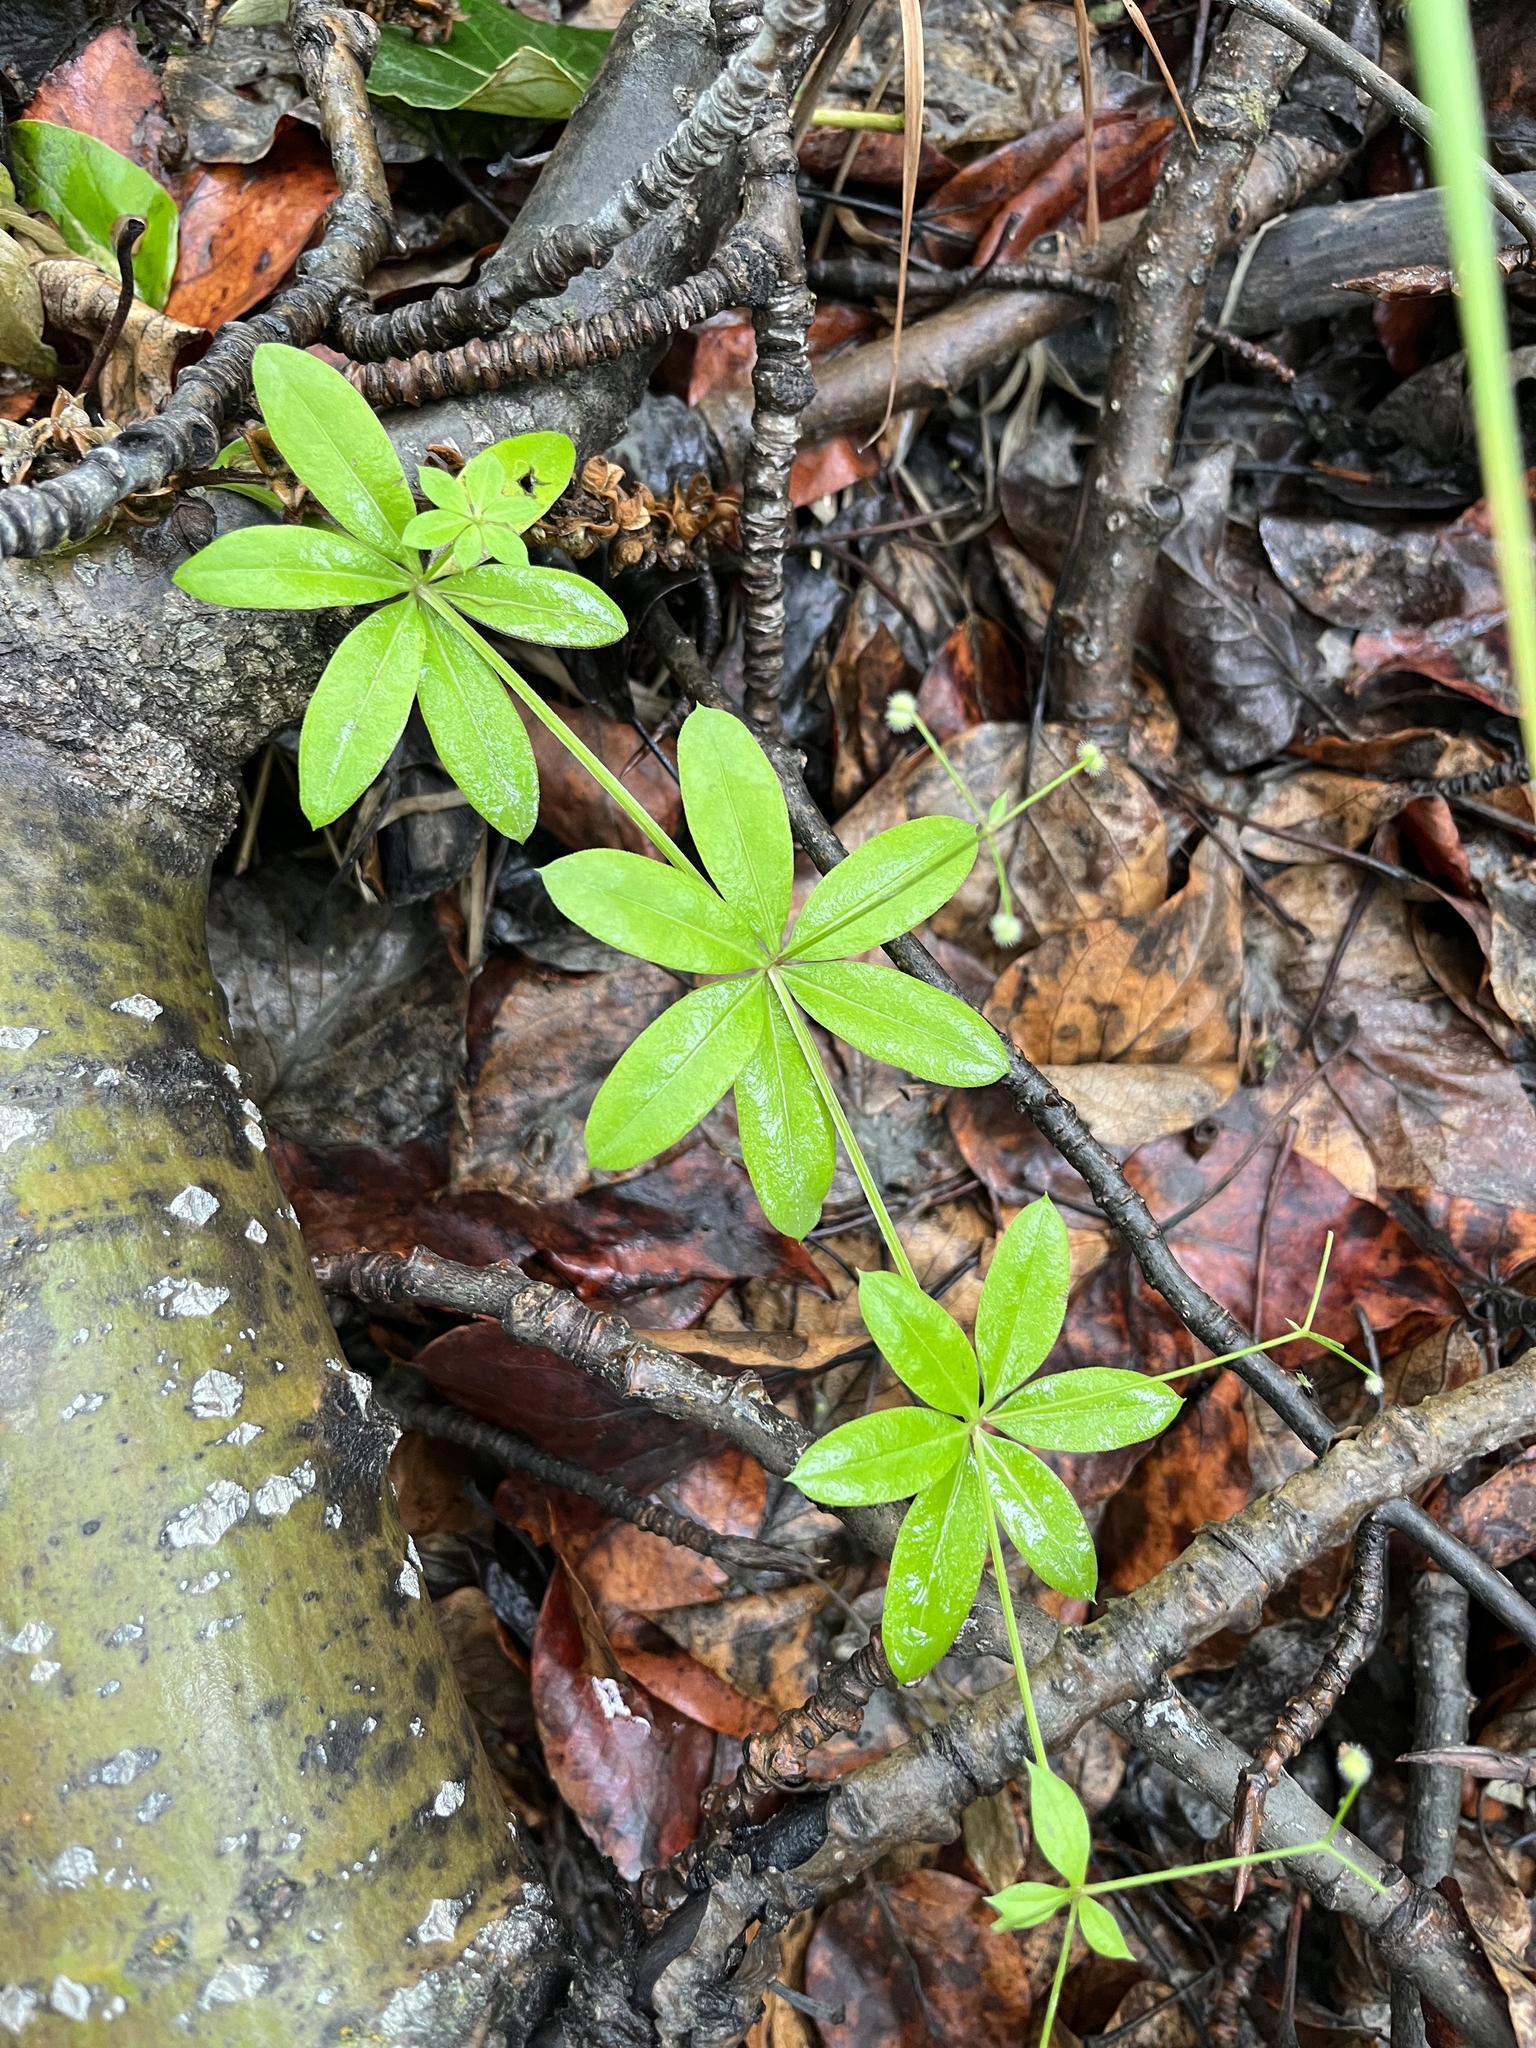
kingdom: Plantae
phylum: Tracheophyta
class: Magnoliopsida
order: Gentianales
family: Rubiaceae
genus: Galium
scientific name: Galium triflorum
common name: Fragrant bedstraw
